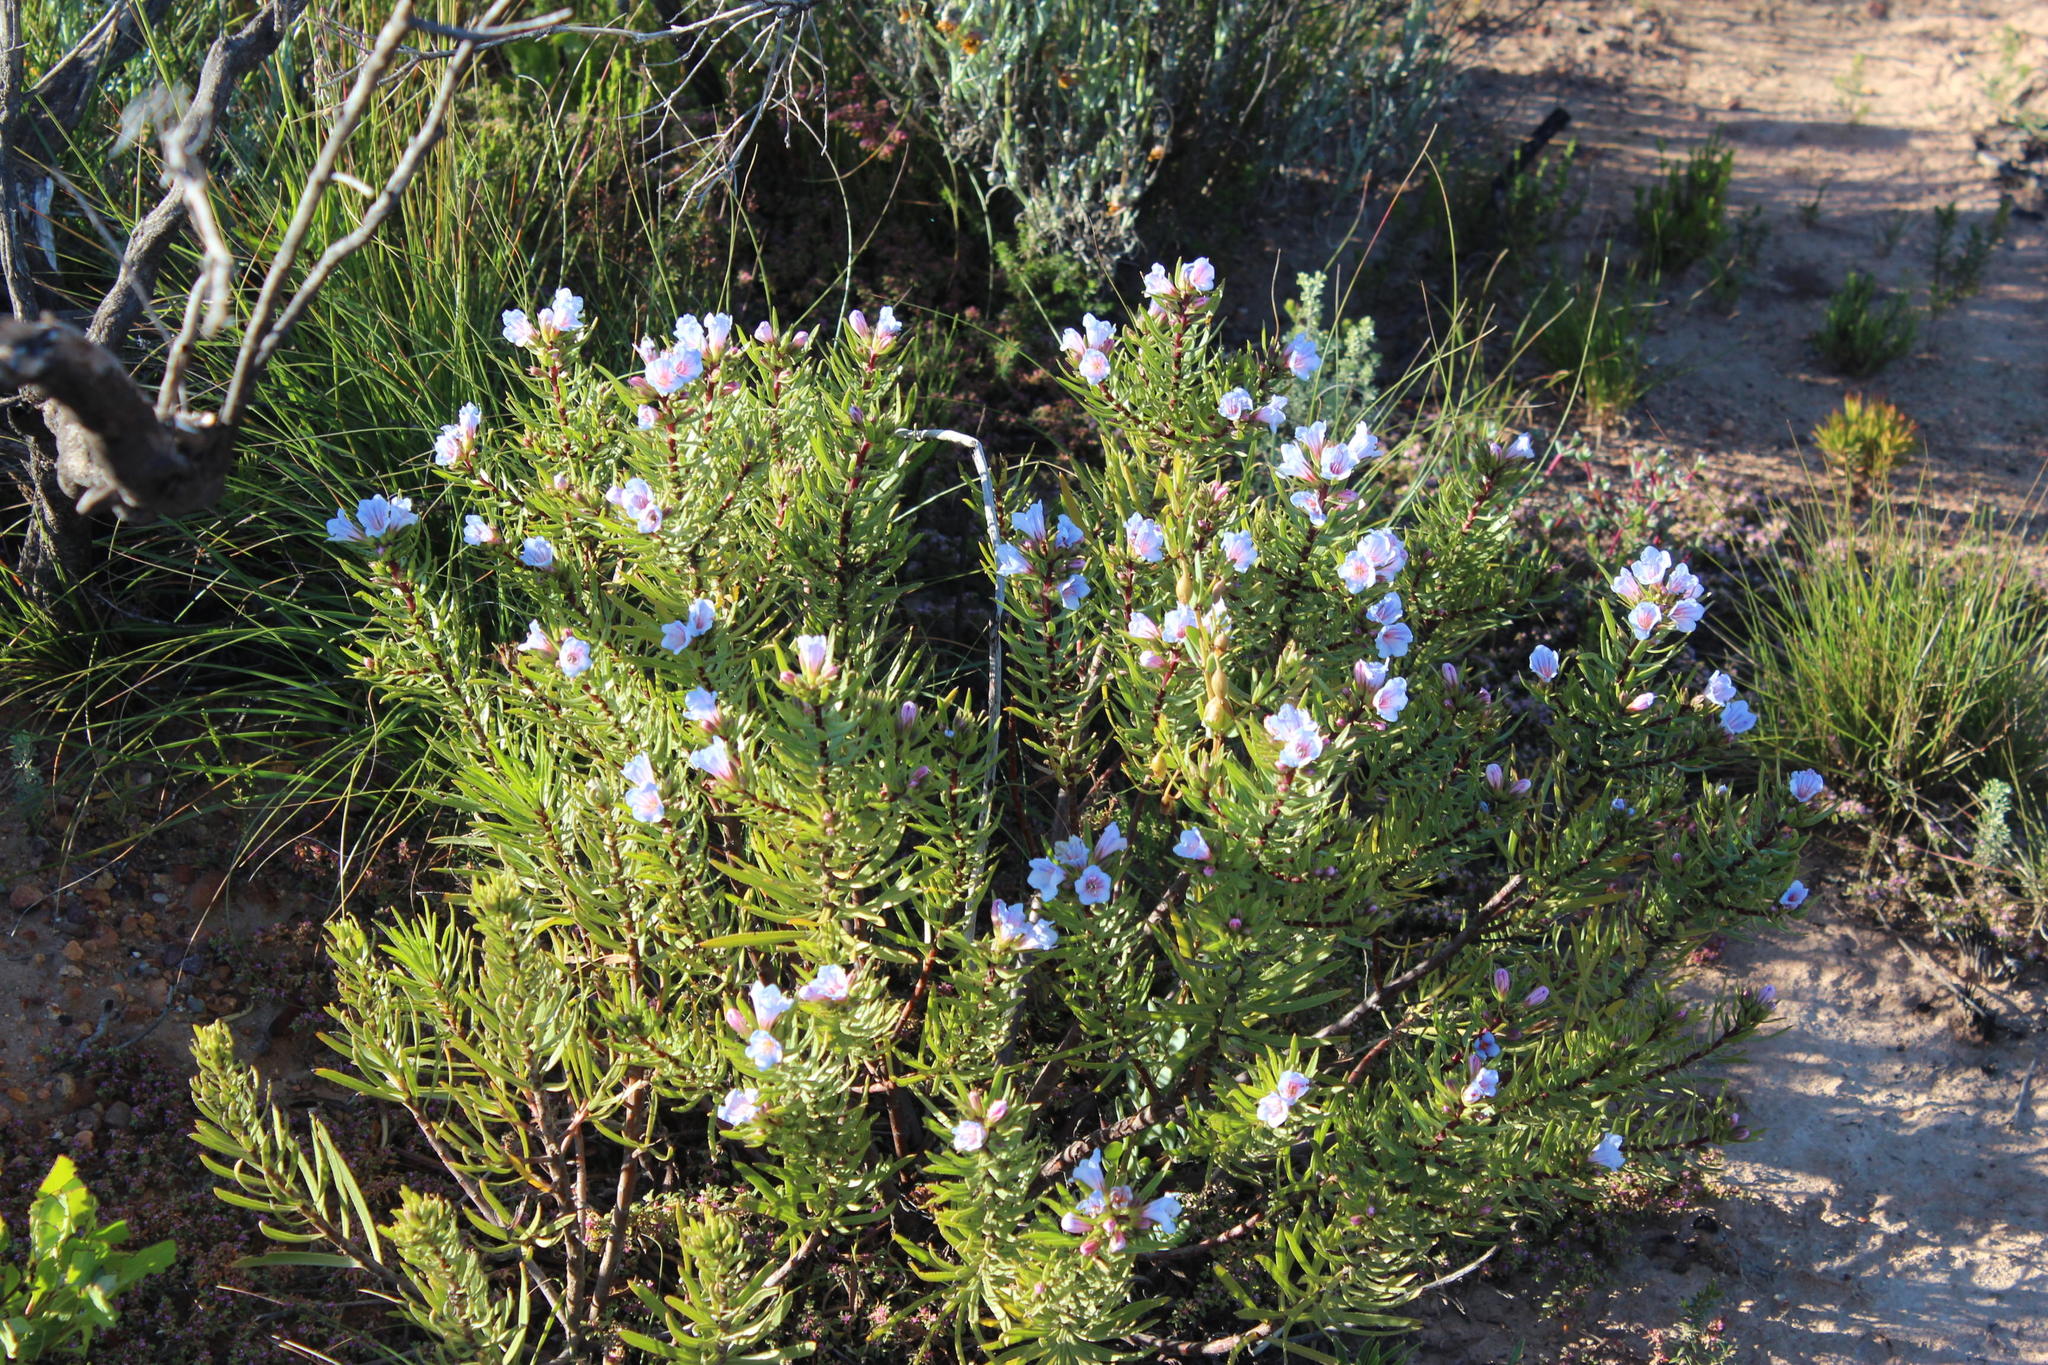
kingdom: Plantae
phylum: Tracheophyta
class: Magnoliopsida
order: Boraginales
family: Boraginaceae
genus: Lobostemon
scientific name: Lobostemon fruticosus
